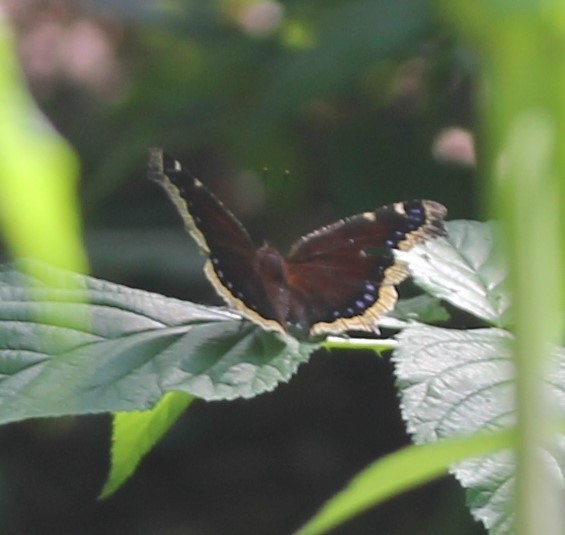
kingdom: Animalia
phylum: Arthropoda
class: Insecta
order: Lepidoptera
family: Nymphalidae
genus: Nymphalis
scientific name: Nymphalis antiopa
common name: Camberwell beauty
